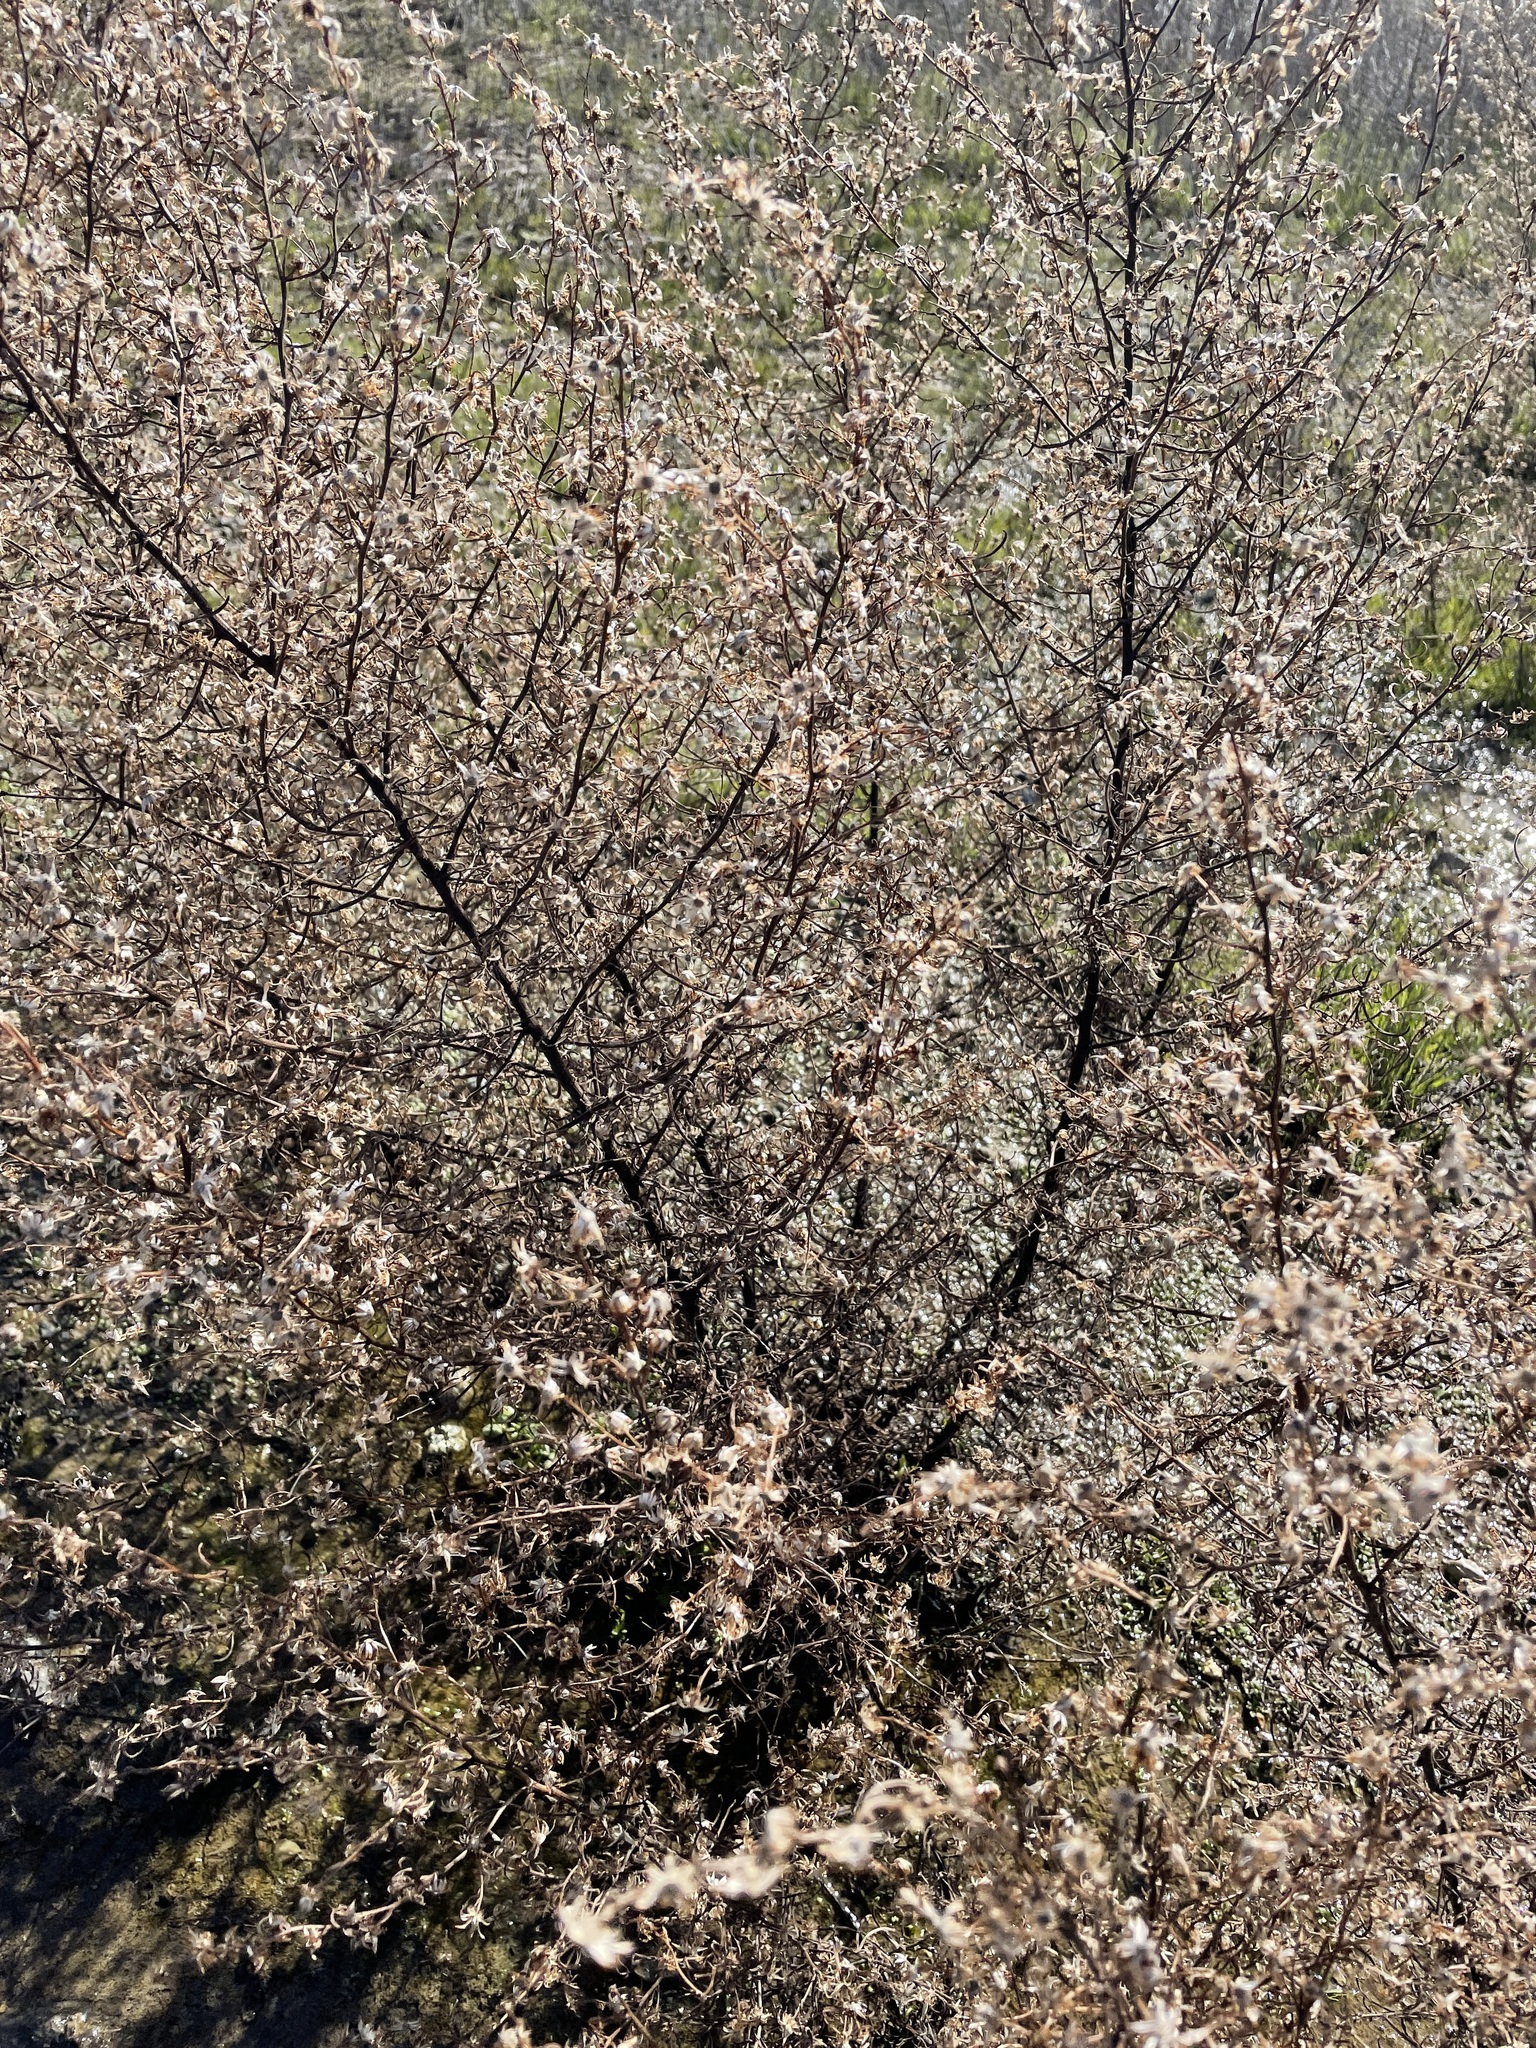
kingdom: Plantae
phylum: Tracheophyta
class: Magnoliopsida
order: Asterales
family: Asteraceae
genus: Dittrichia
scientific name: Dittrichia graveolens
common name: Stinking fleabane
